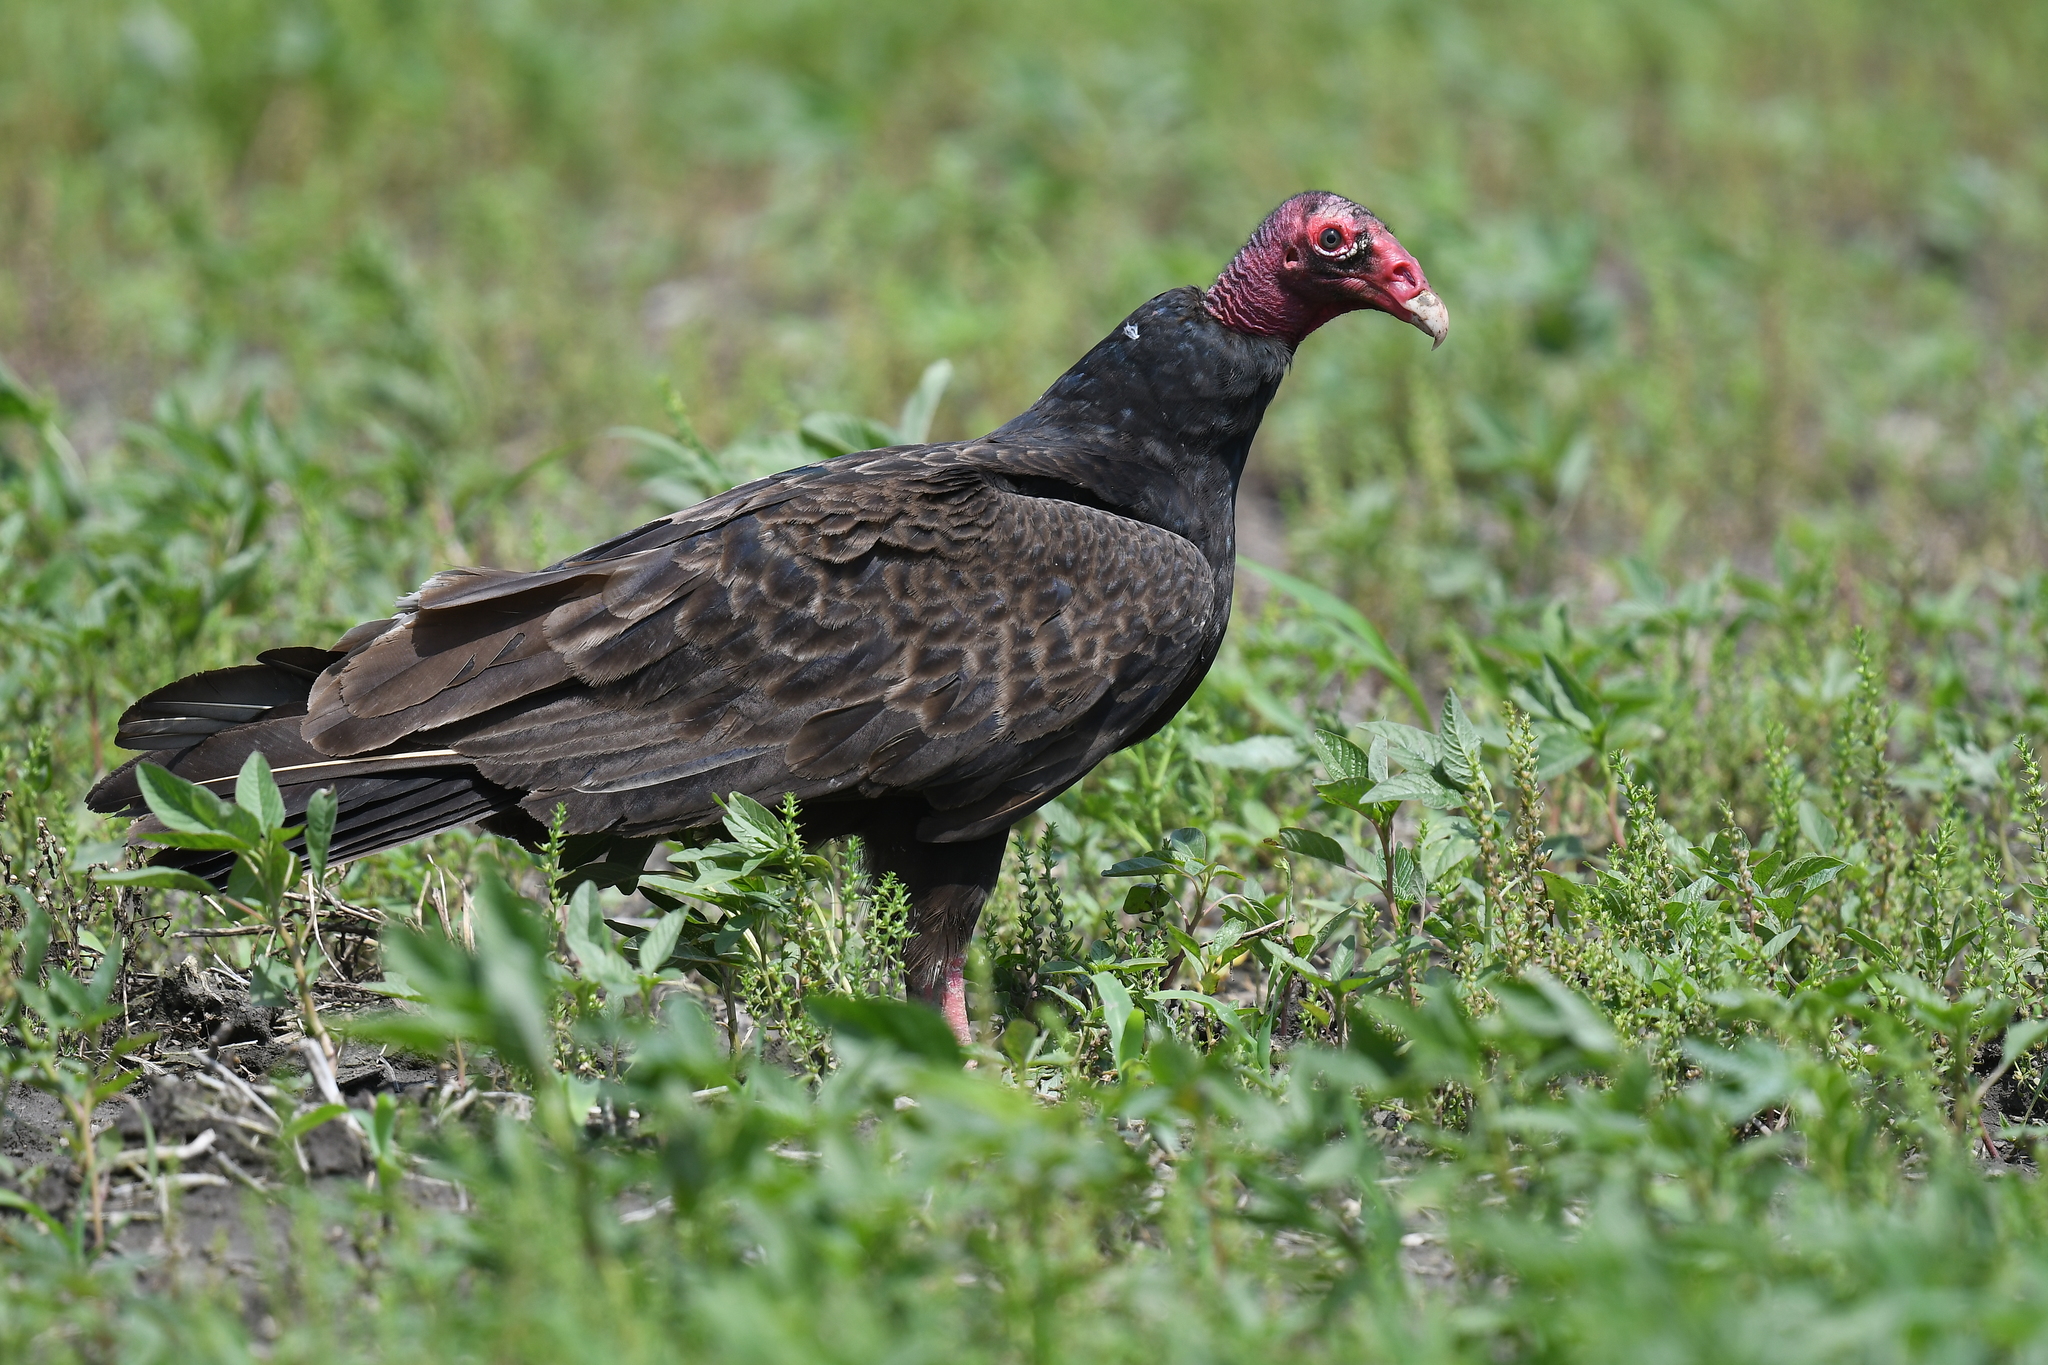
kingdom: Animalia
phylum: Chordata
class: Aves
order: Accipitriformes
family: Cathartidae
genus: Cathartes
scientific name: Cathartes aura
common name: Turkey vulture
